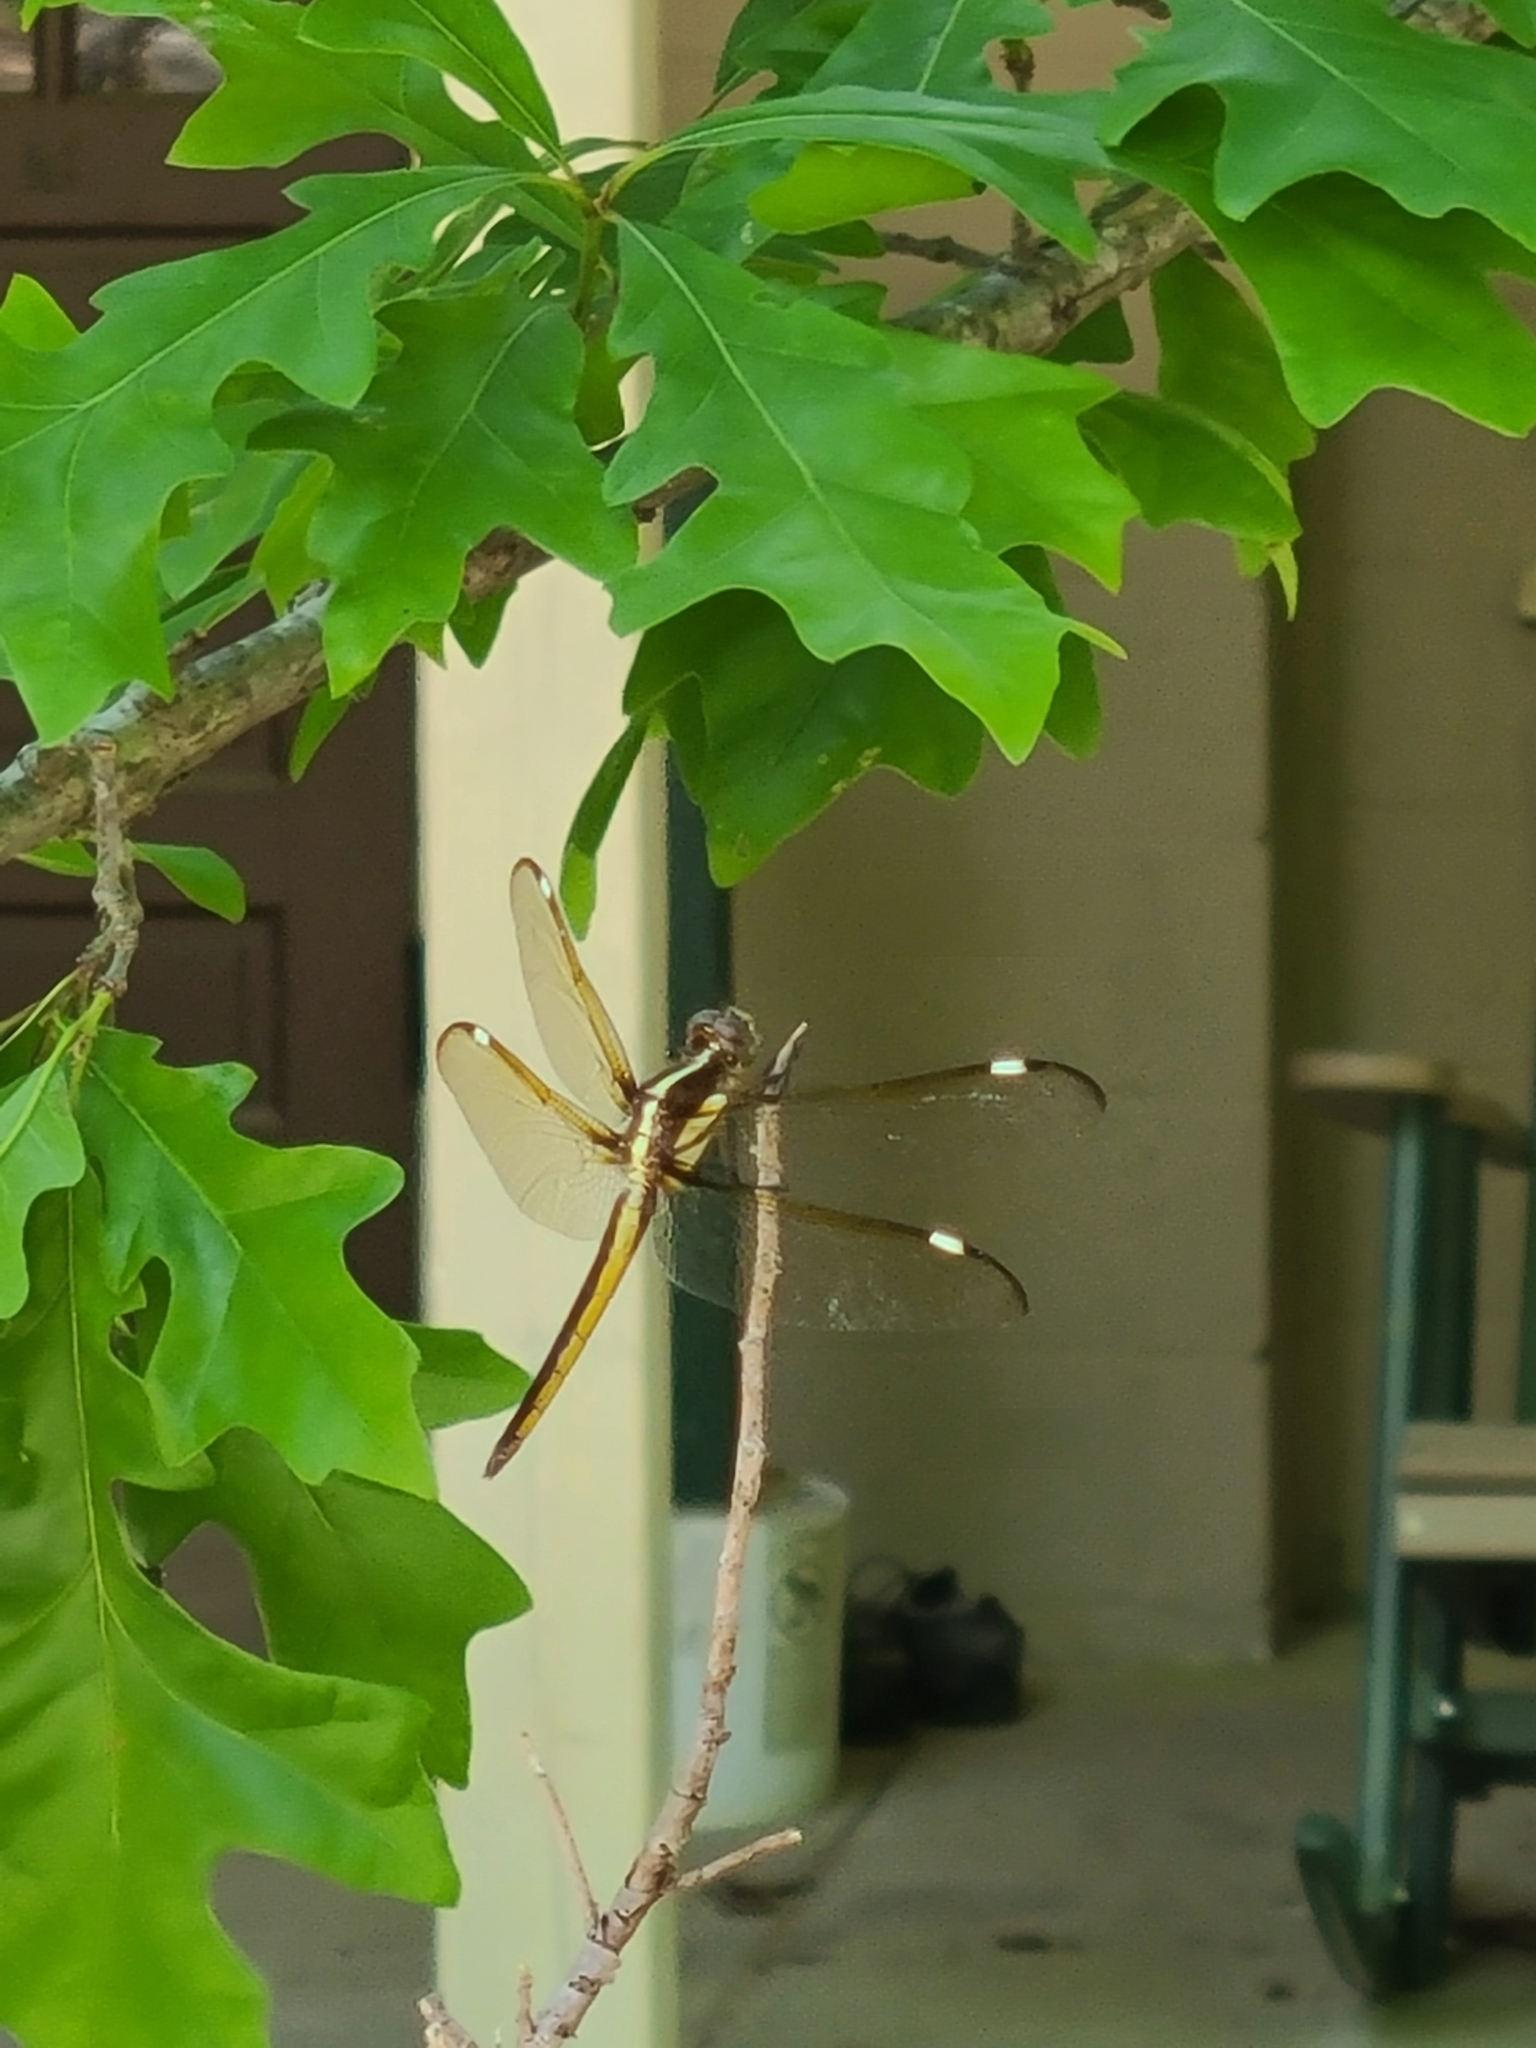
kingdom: Animalia
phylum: Arthropoda
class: Insecta
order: Odonata
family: Libellulidae
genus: Libellula
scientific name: Libellula cyanea
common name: Spangled skimmer
